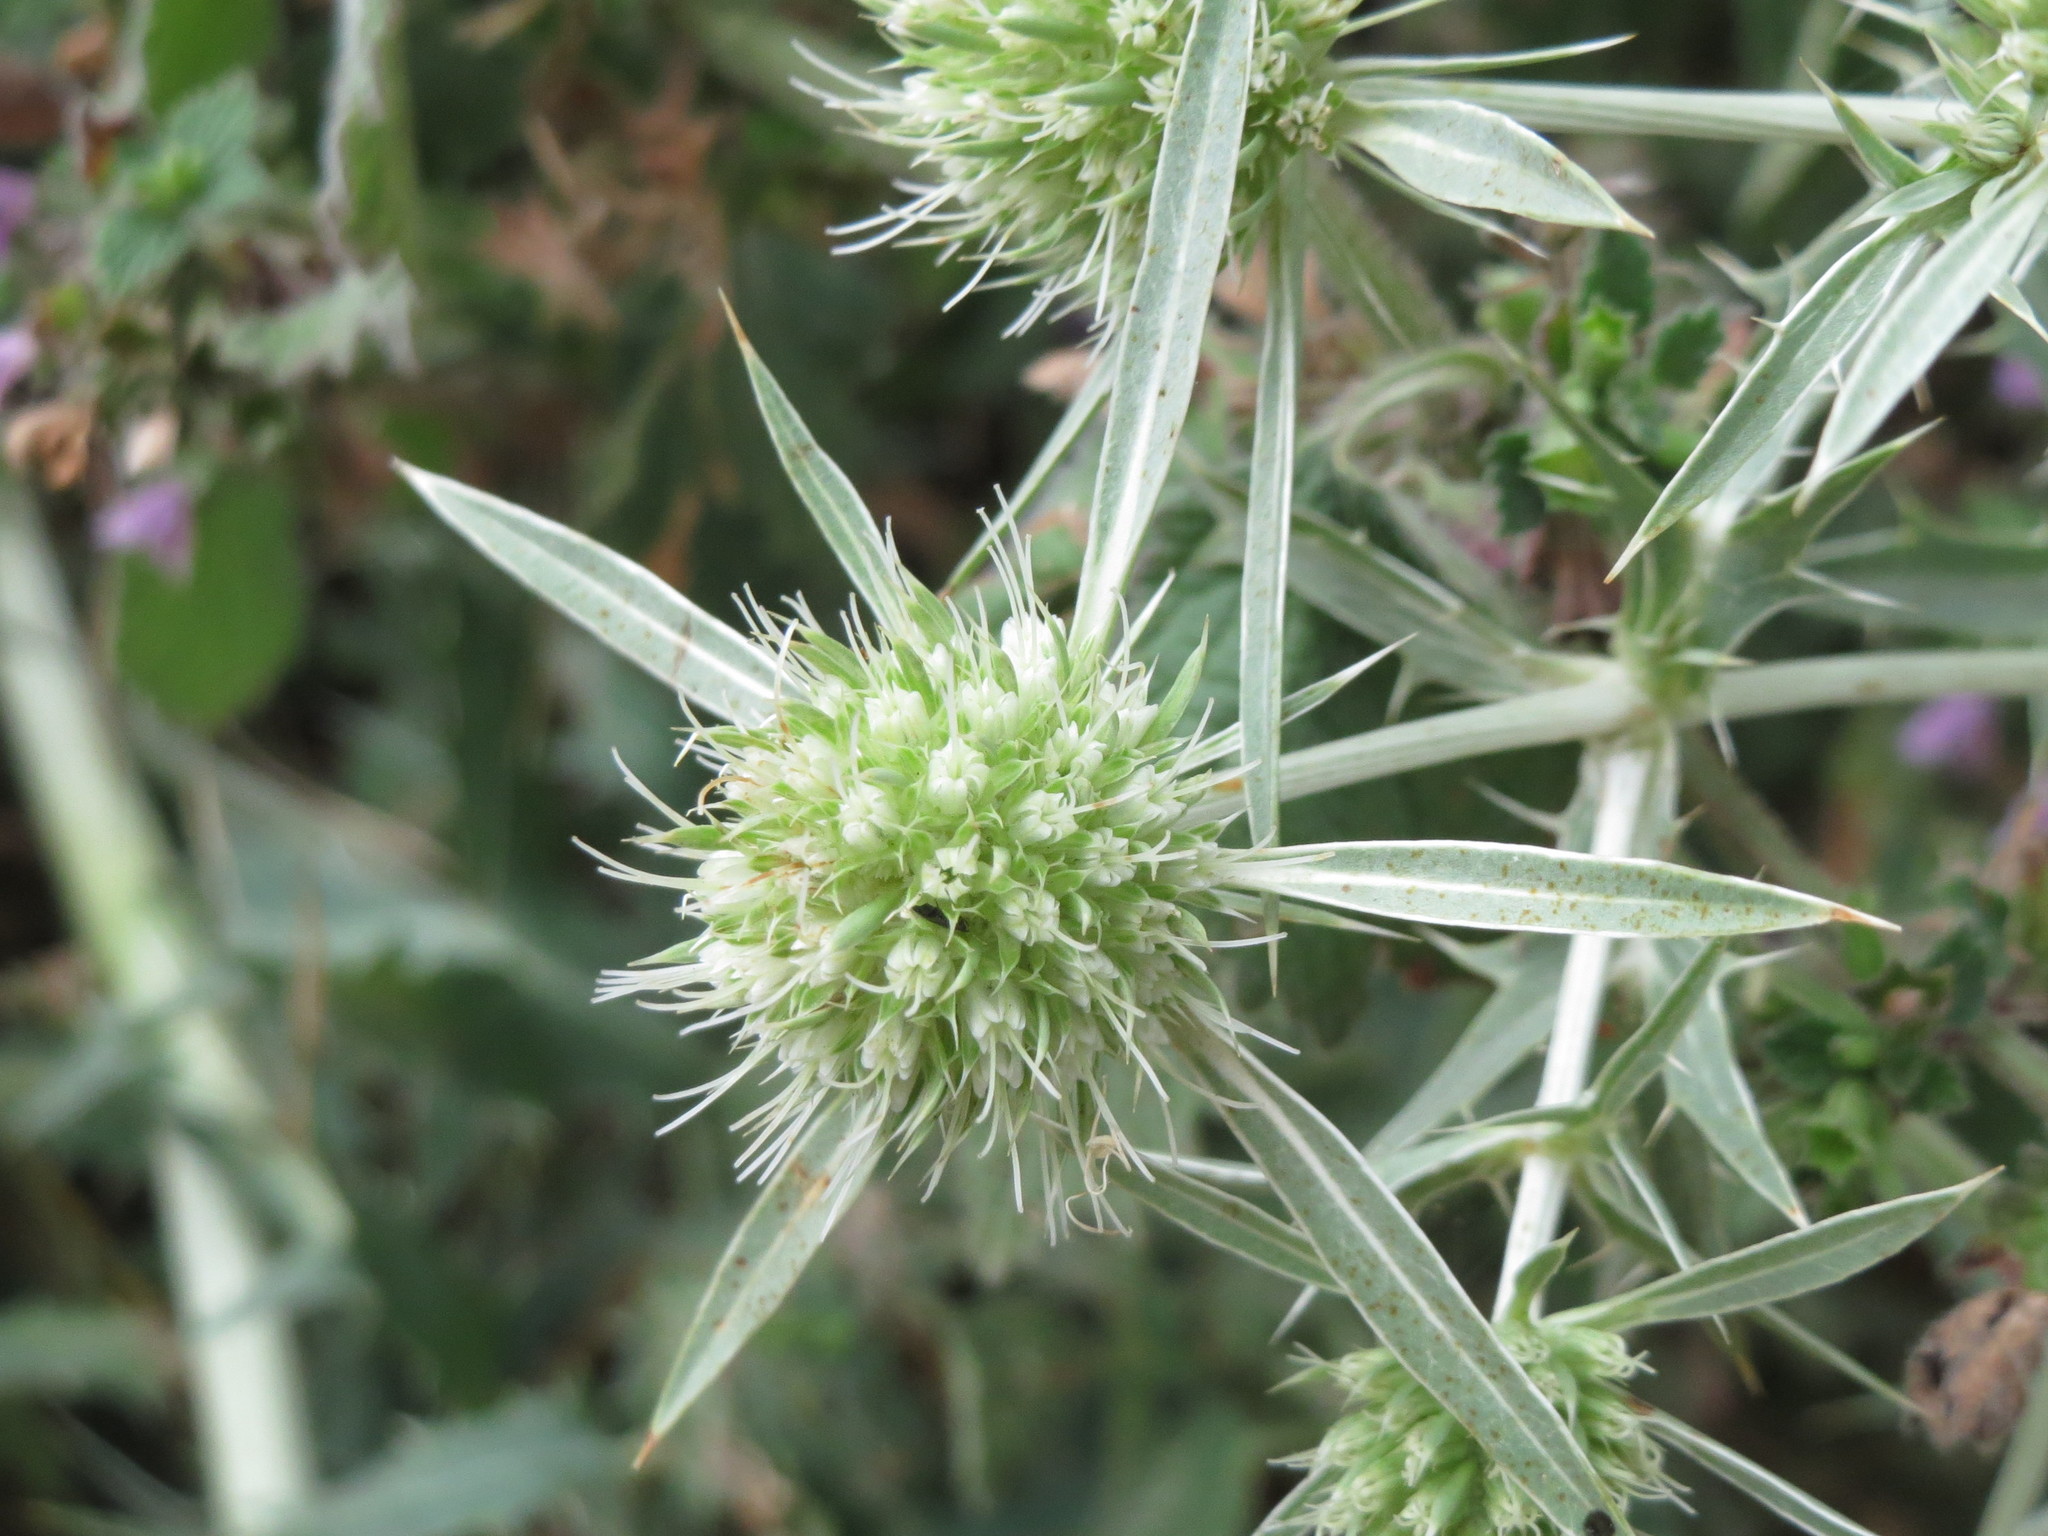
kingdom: Plantae
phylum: Tracheophyta
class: Magnoliopsida
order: Apiales
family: Apiaceae
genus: Eryngium
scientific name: Eryngium campestre
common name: Field eryngo
